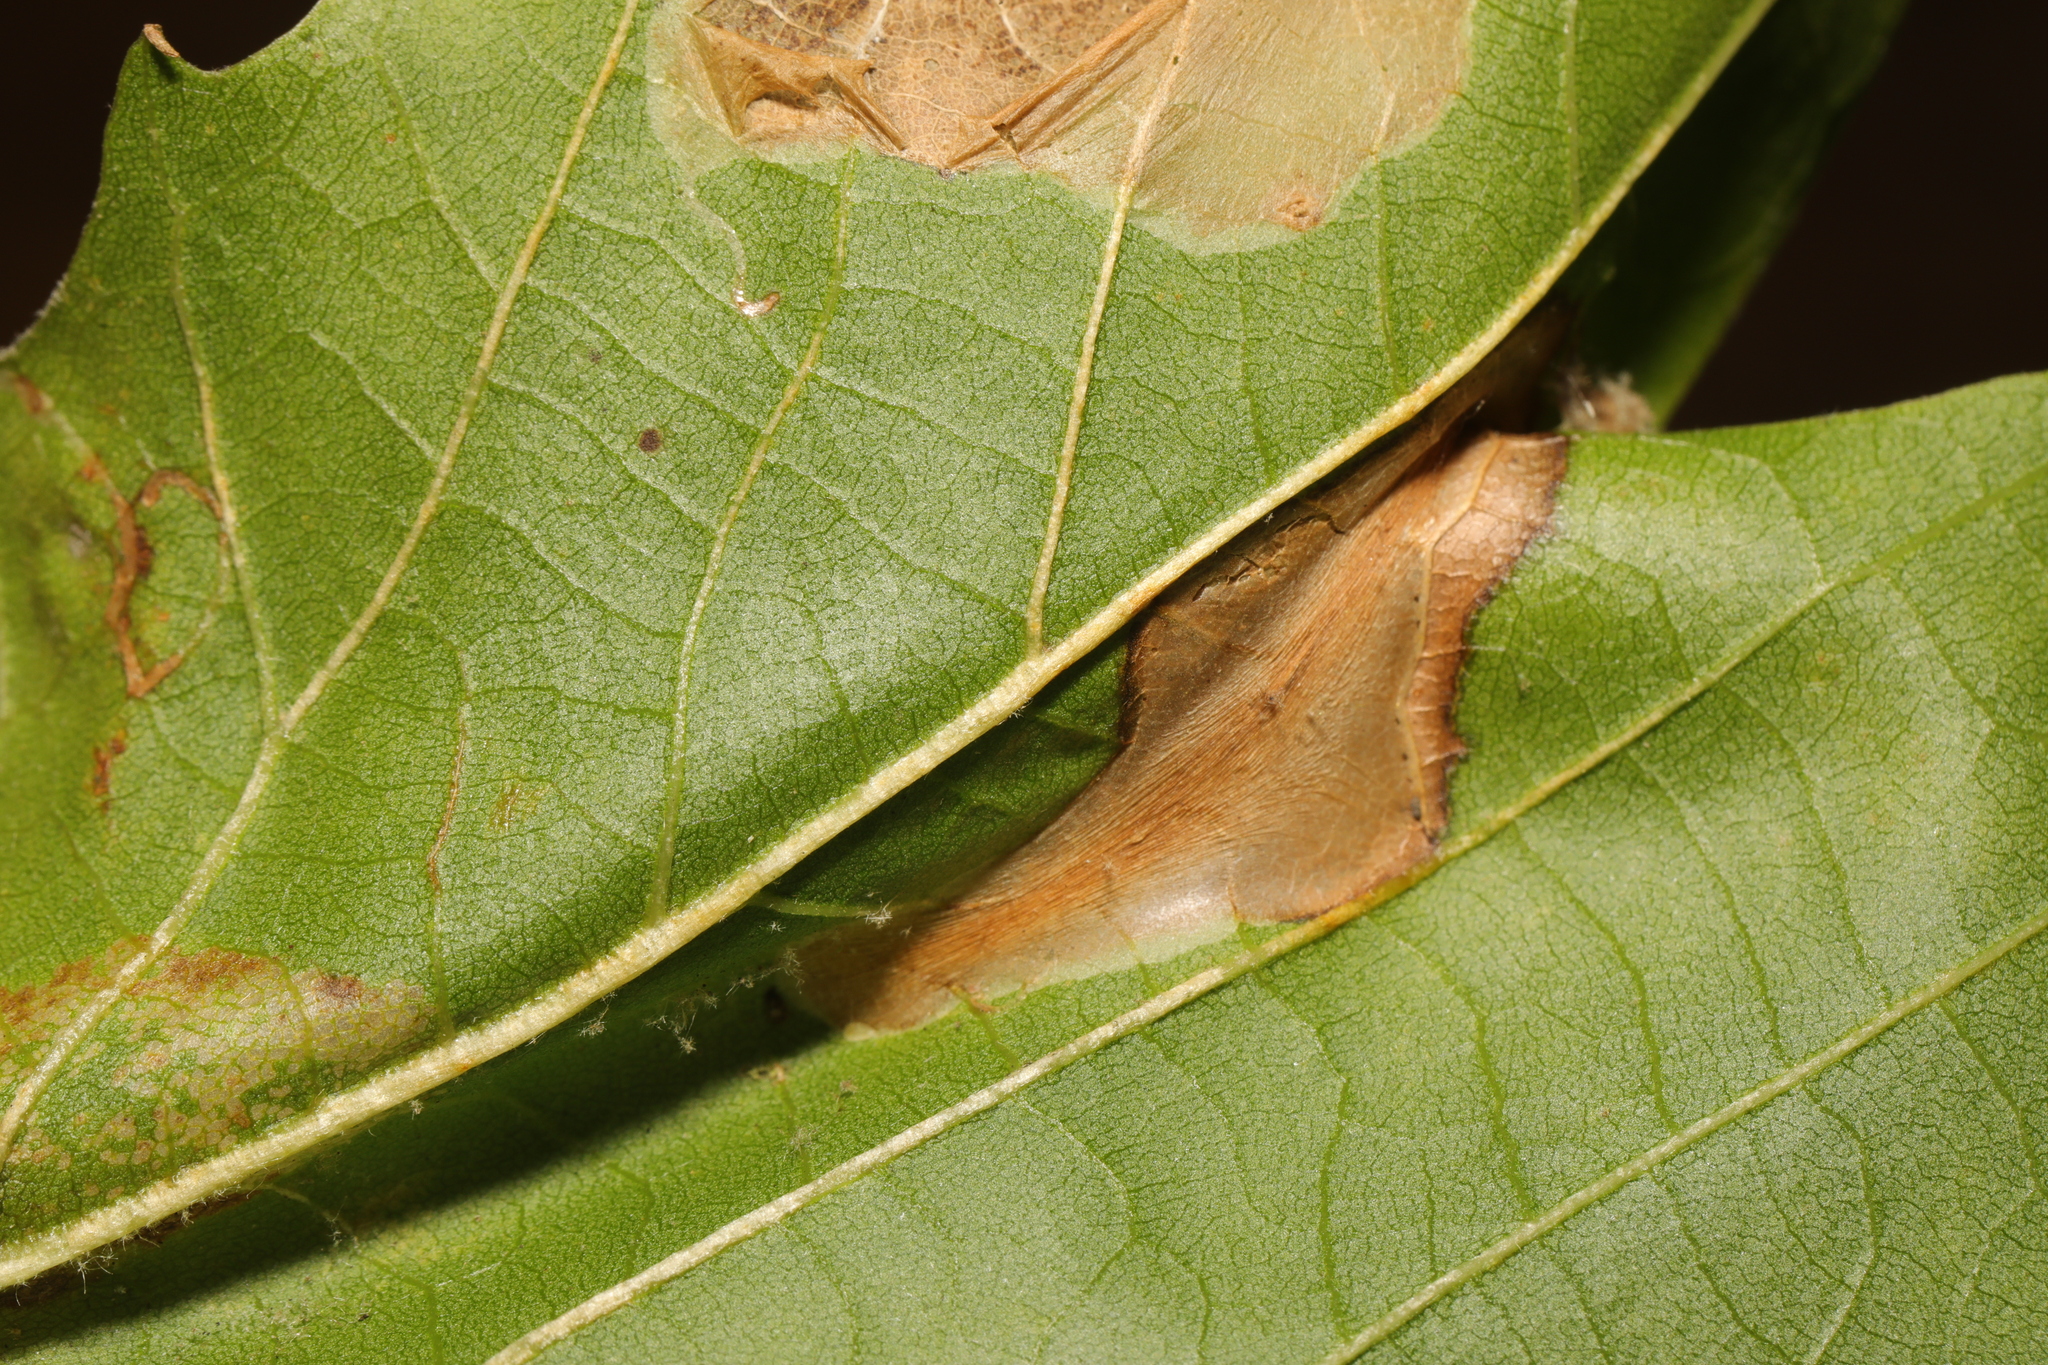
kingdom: Animalia
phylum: Arthropoda
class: Insecta
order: Lepidoptera
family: Gracillariidae
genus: Phyllonorycter
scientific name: Phyllonorycter platani
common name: London midget
